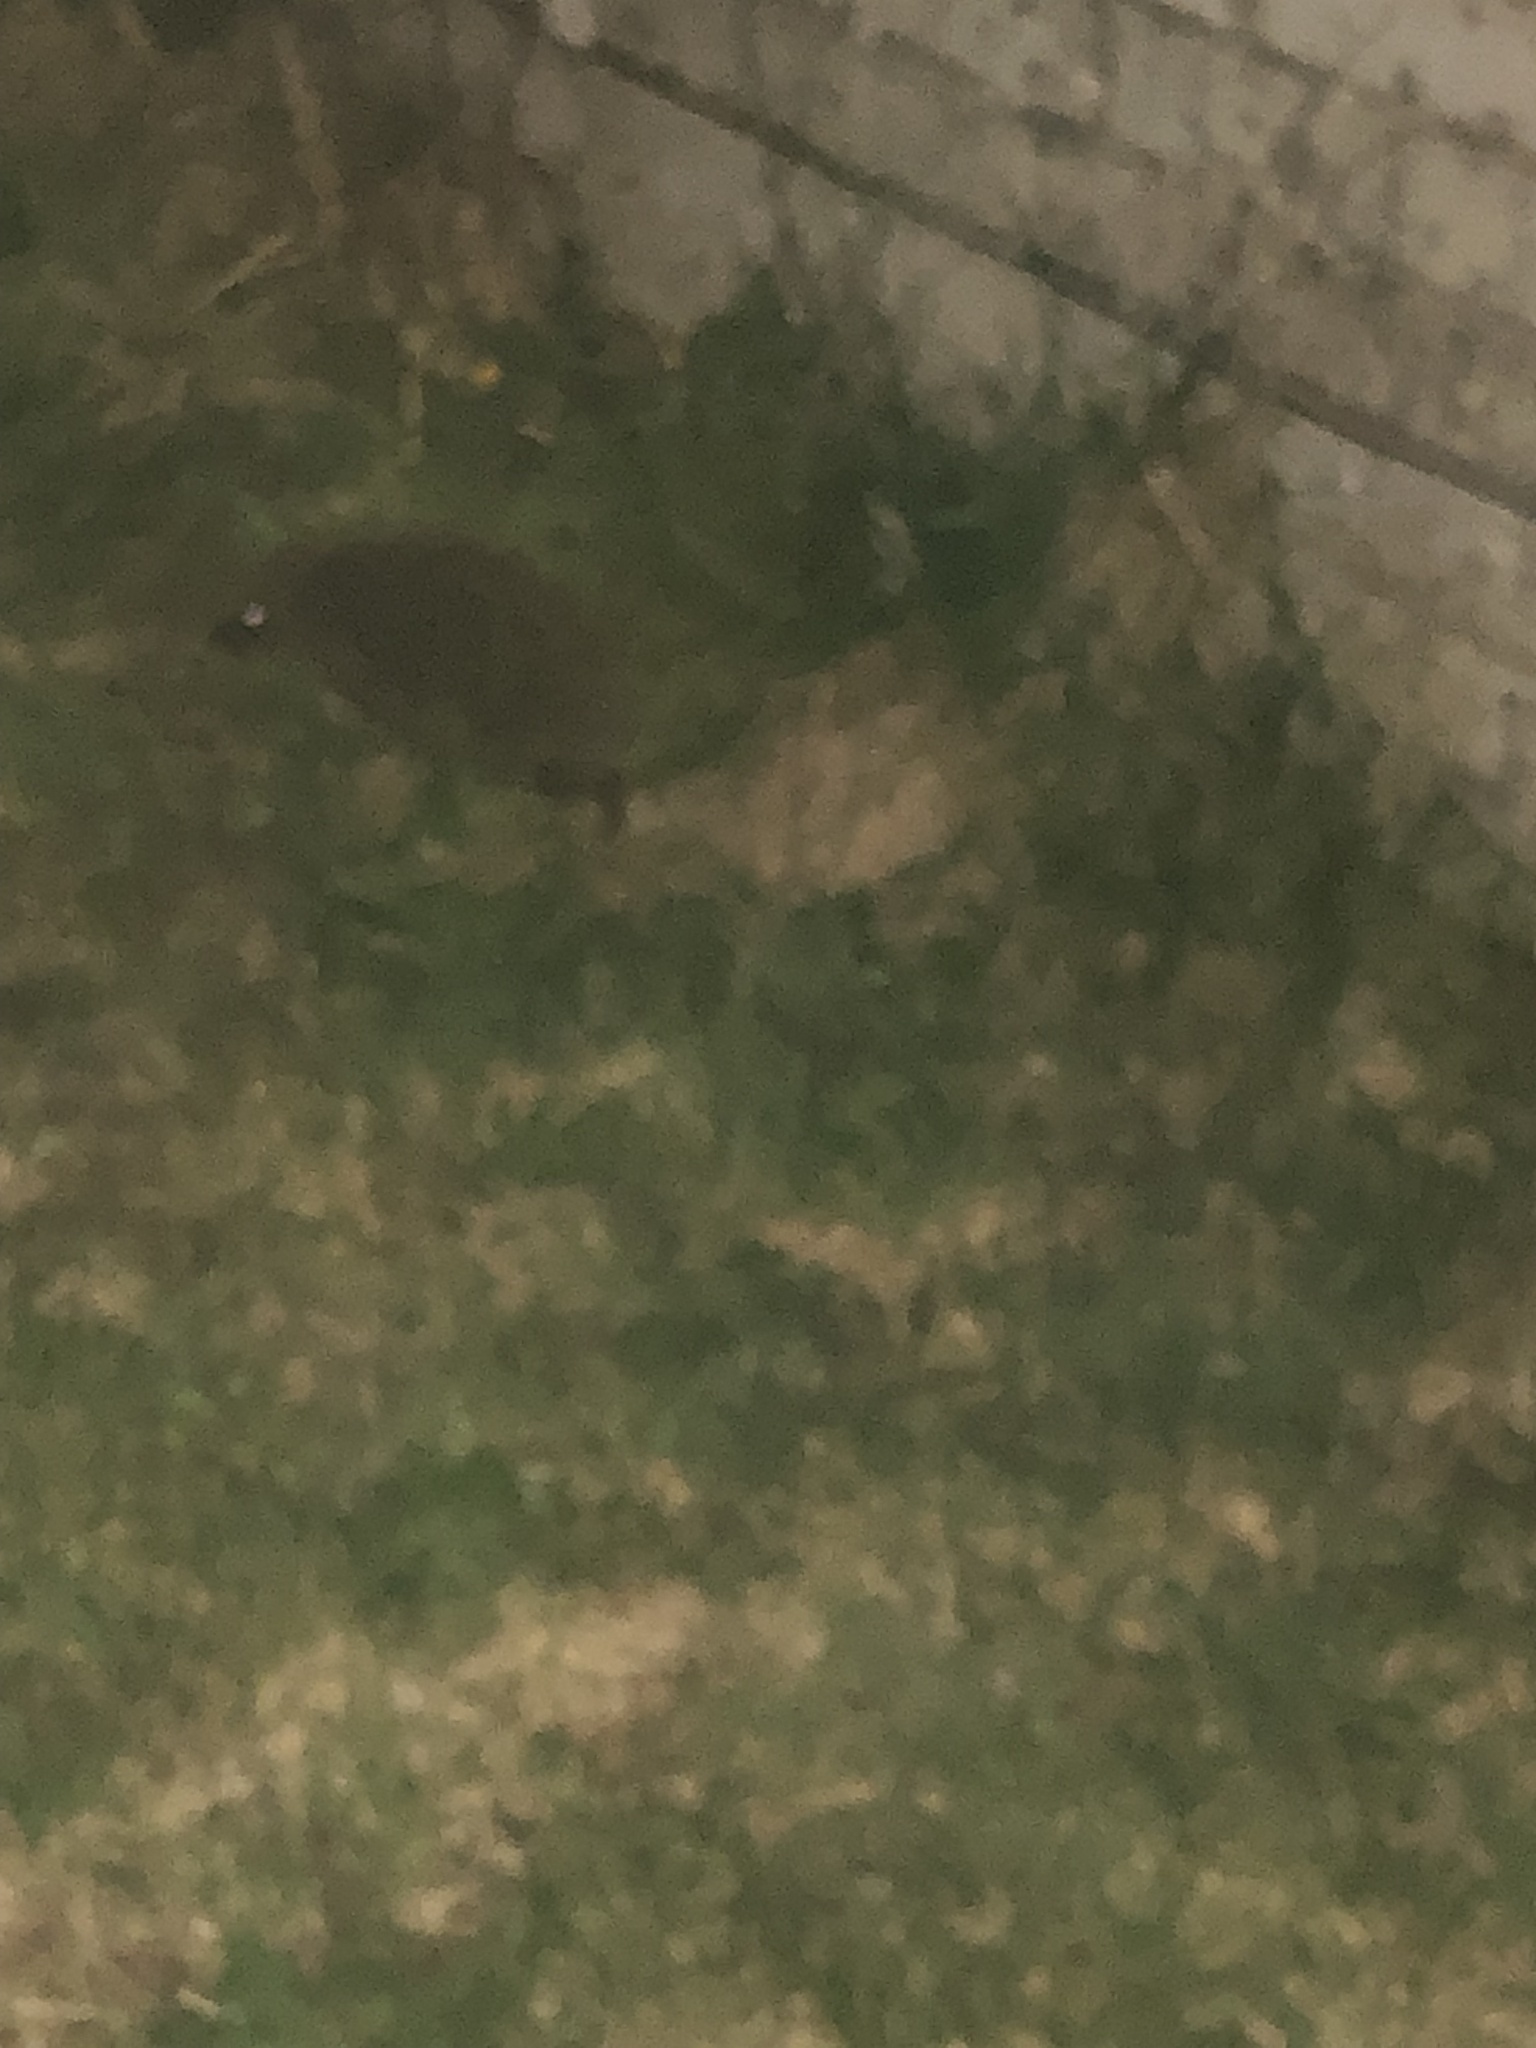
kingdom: Animalia
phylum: Chordata
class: Mammalia
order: Erinaceomorpha
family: Erinaceidae
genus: Erinaceus
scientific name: Erinaceus europaeus
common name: West european hedgehog
